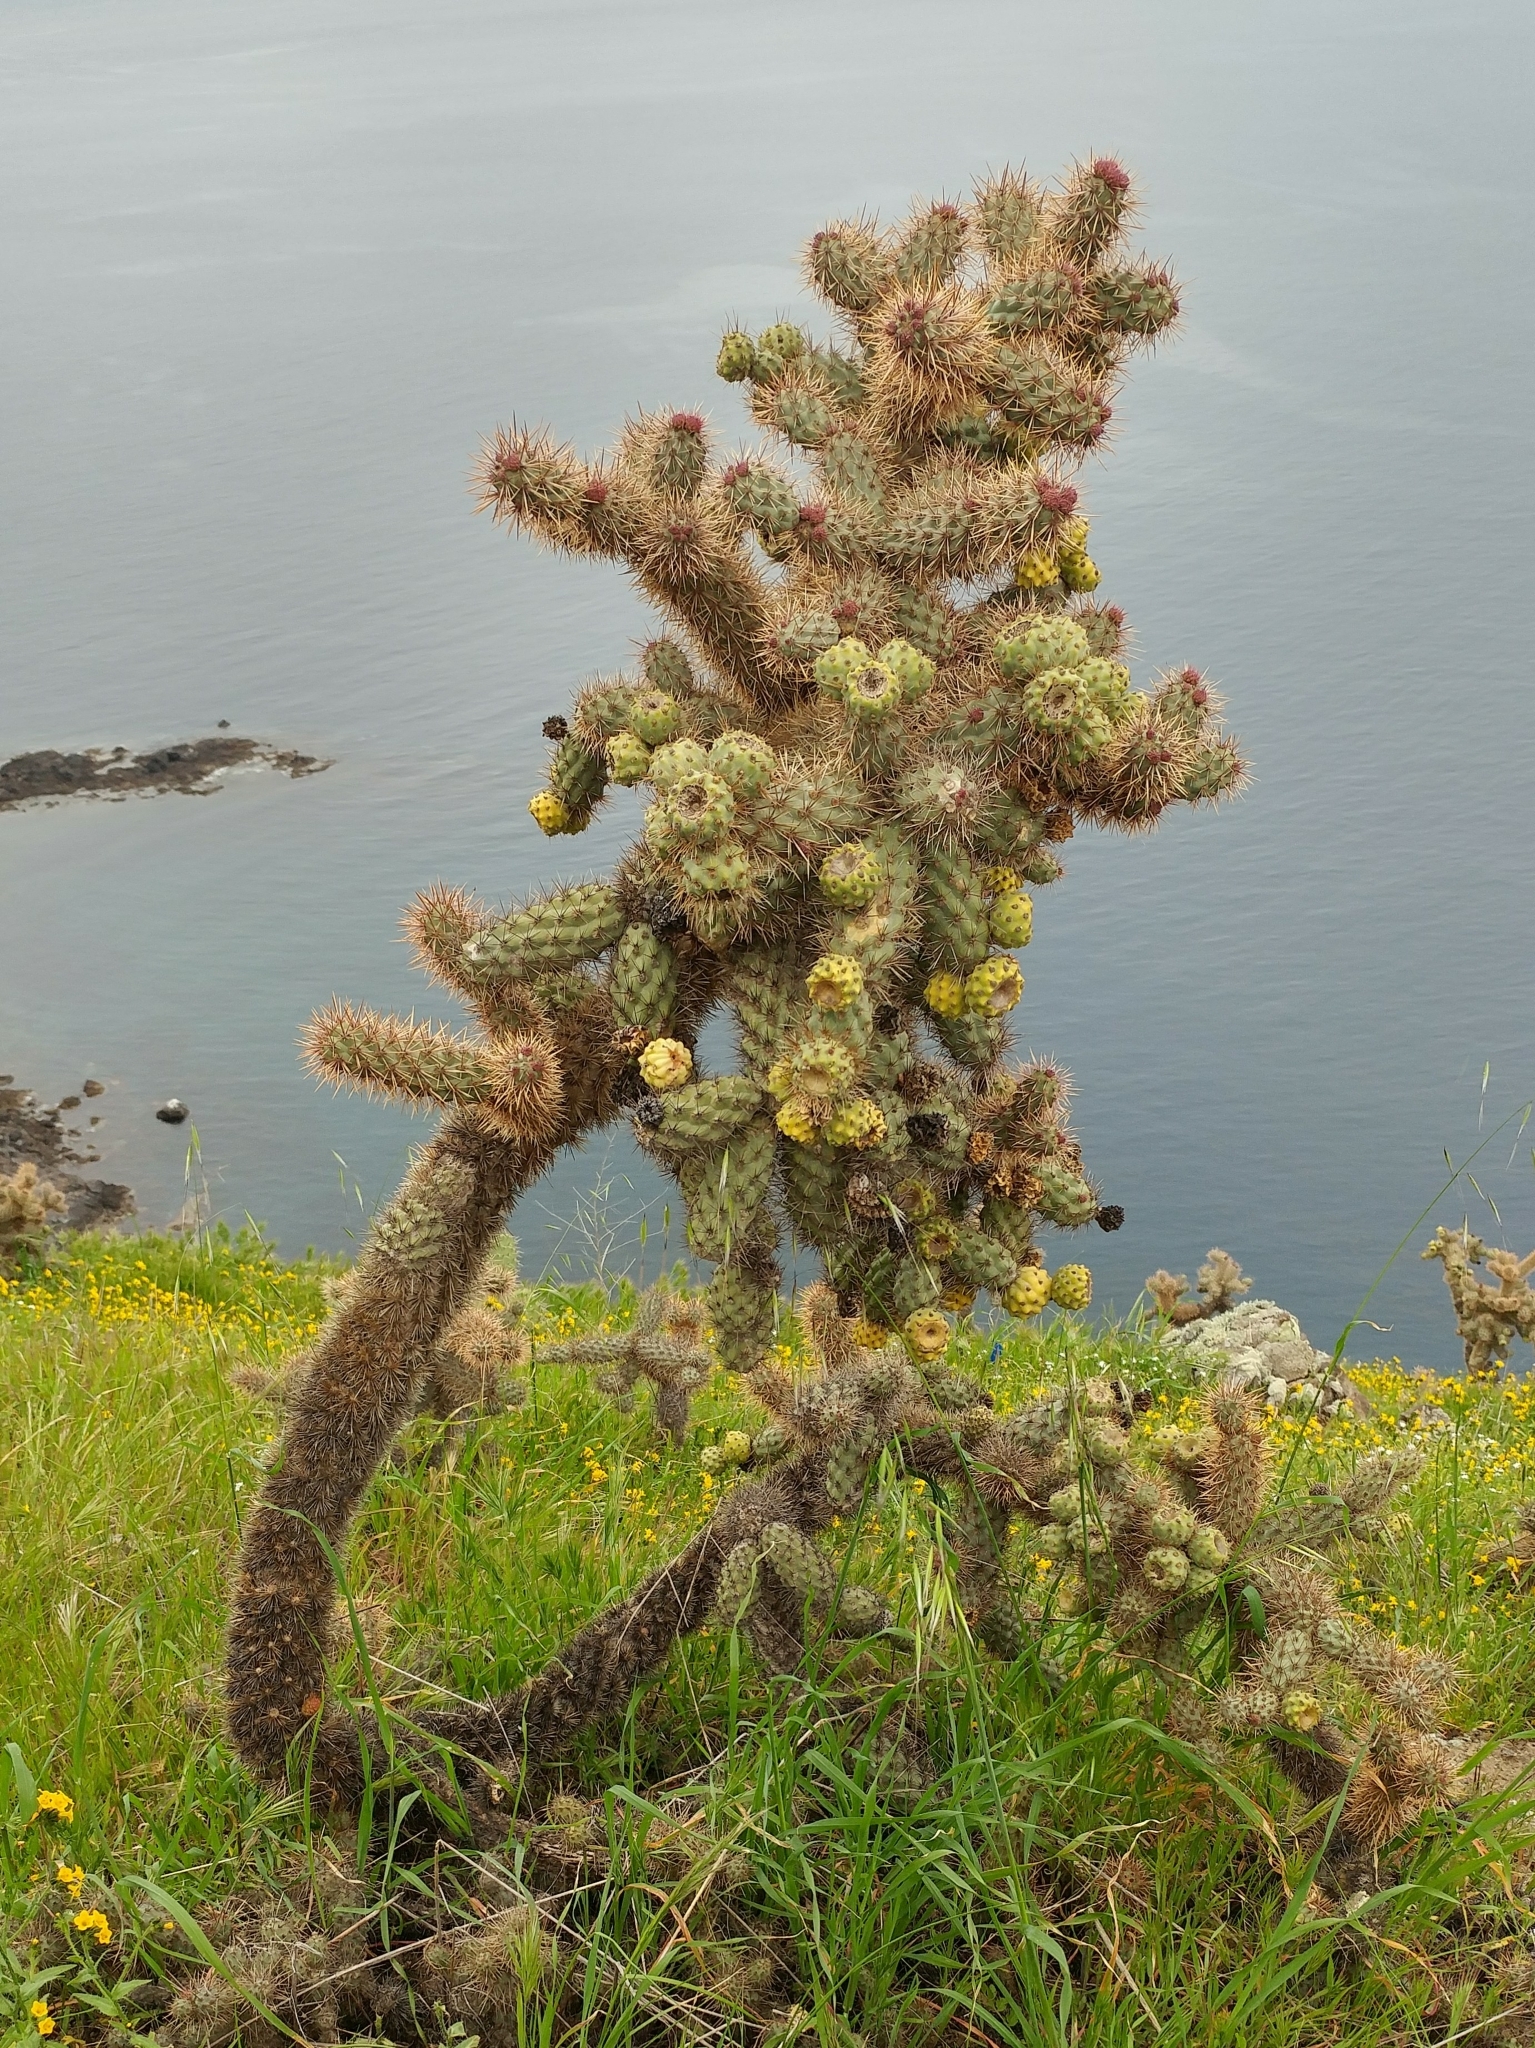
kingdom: Plantae
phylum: Tracheophyta
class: Magnoliopsida
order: Caryophyllales
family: Cactaceae
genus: Cylindropuntia
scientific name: Cylindropuntia prolifera
